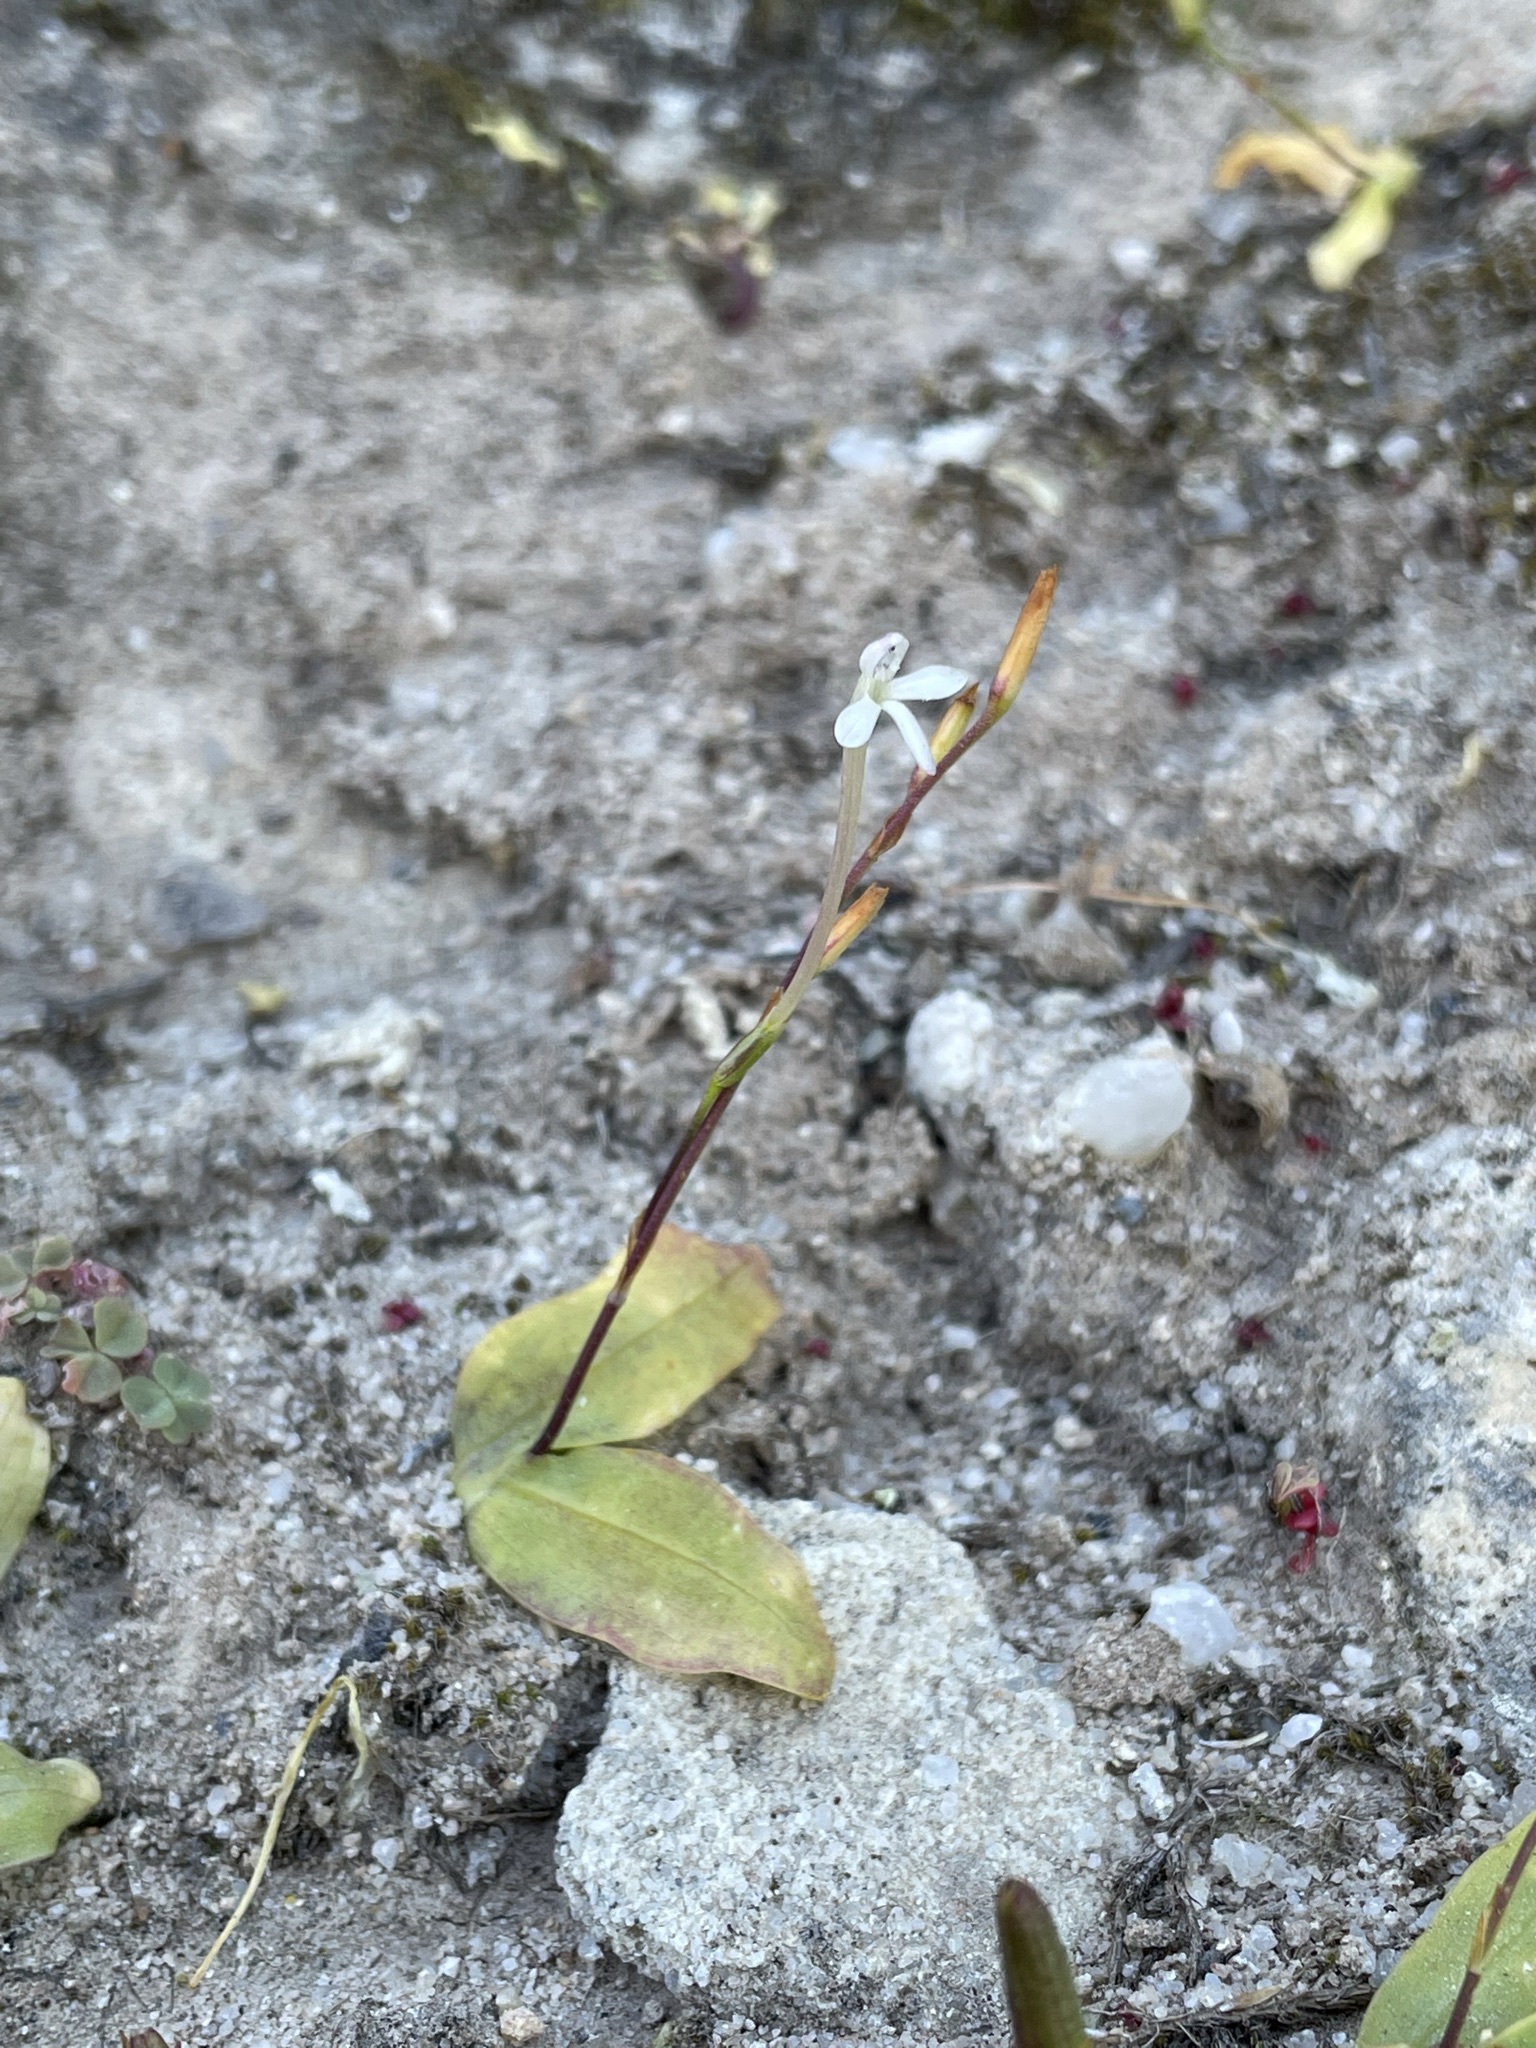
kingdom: Plantae
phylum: Tracheophyta
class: Liliopsida
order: Asparagales
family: Iridaceae
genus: Xenoscapa
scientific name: Xenoscapa fistulosa
